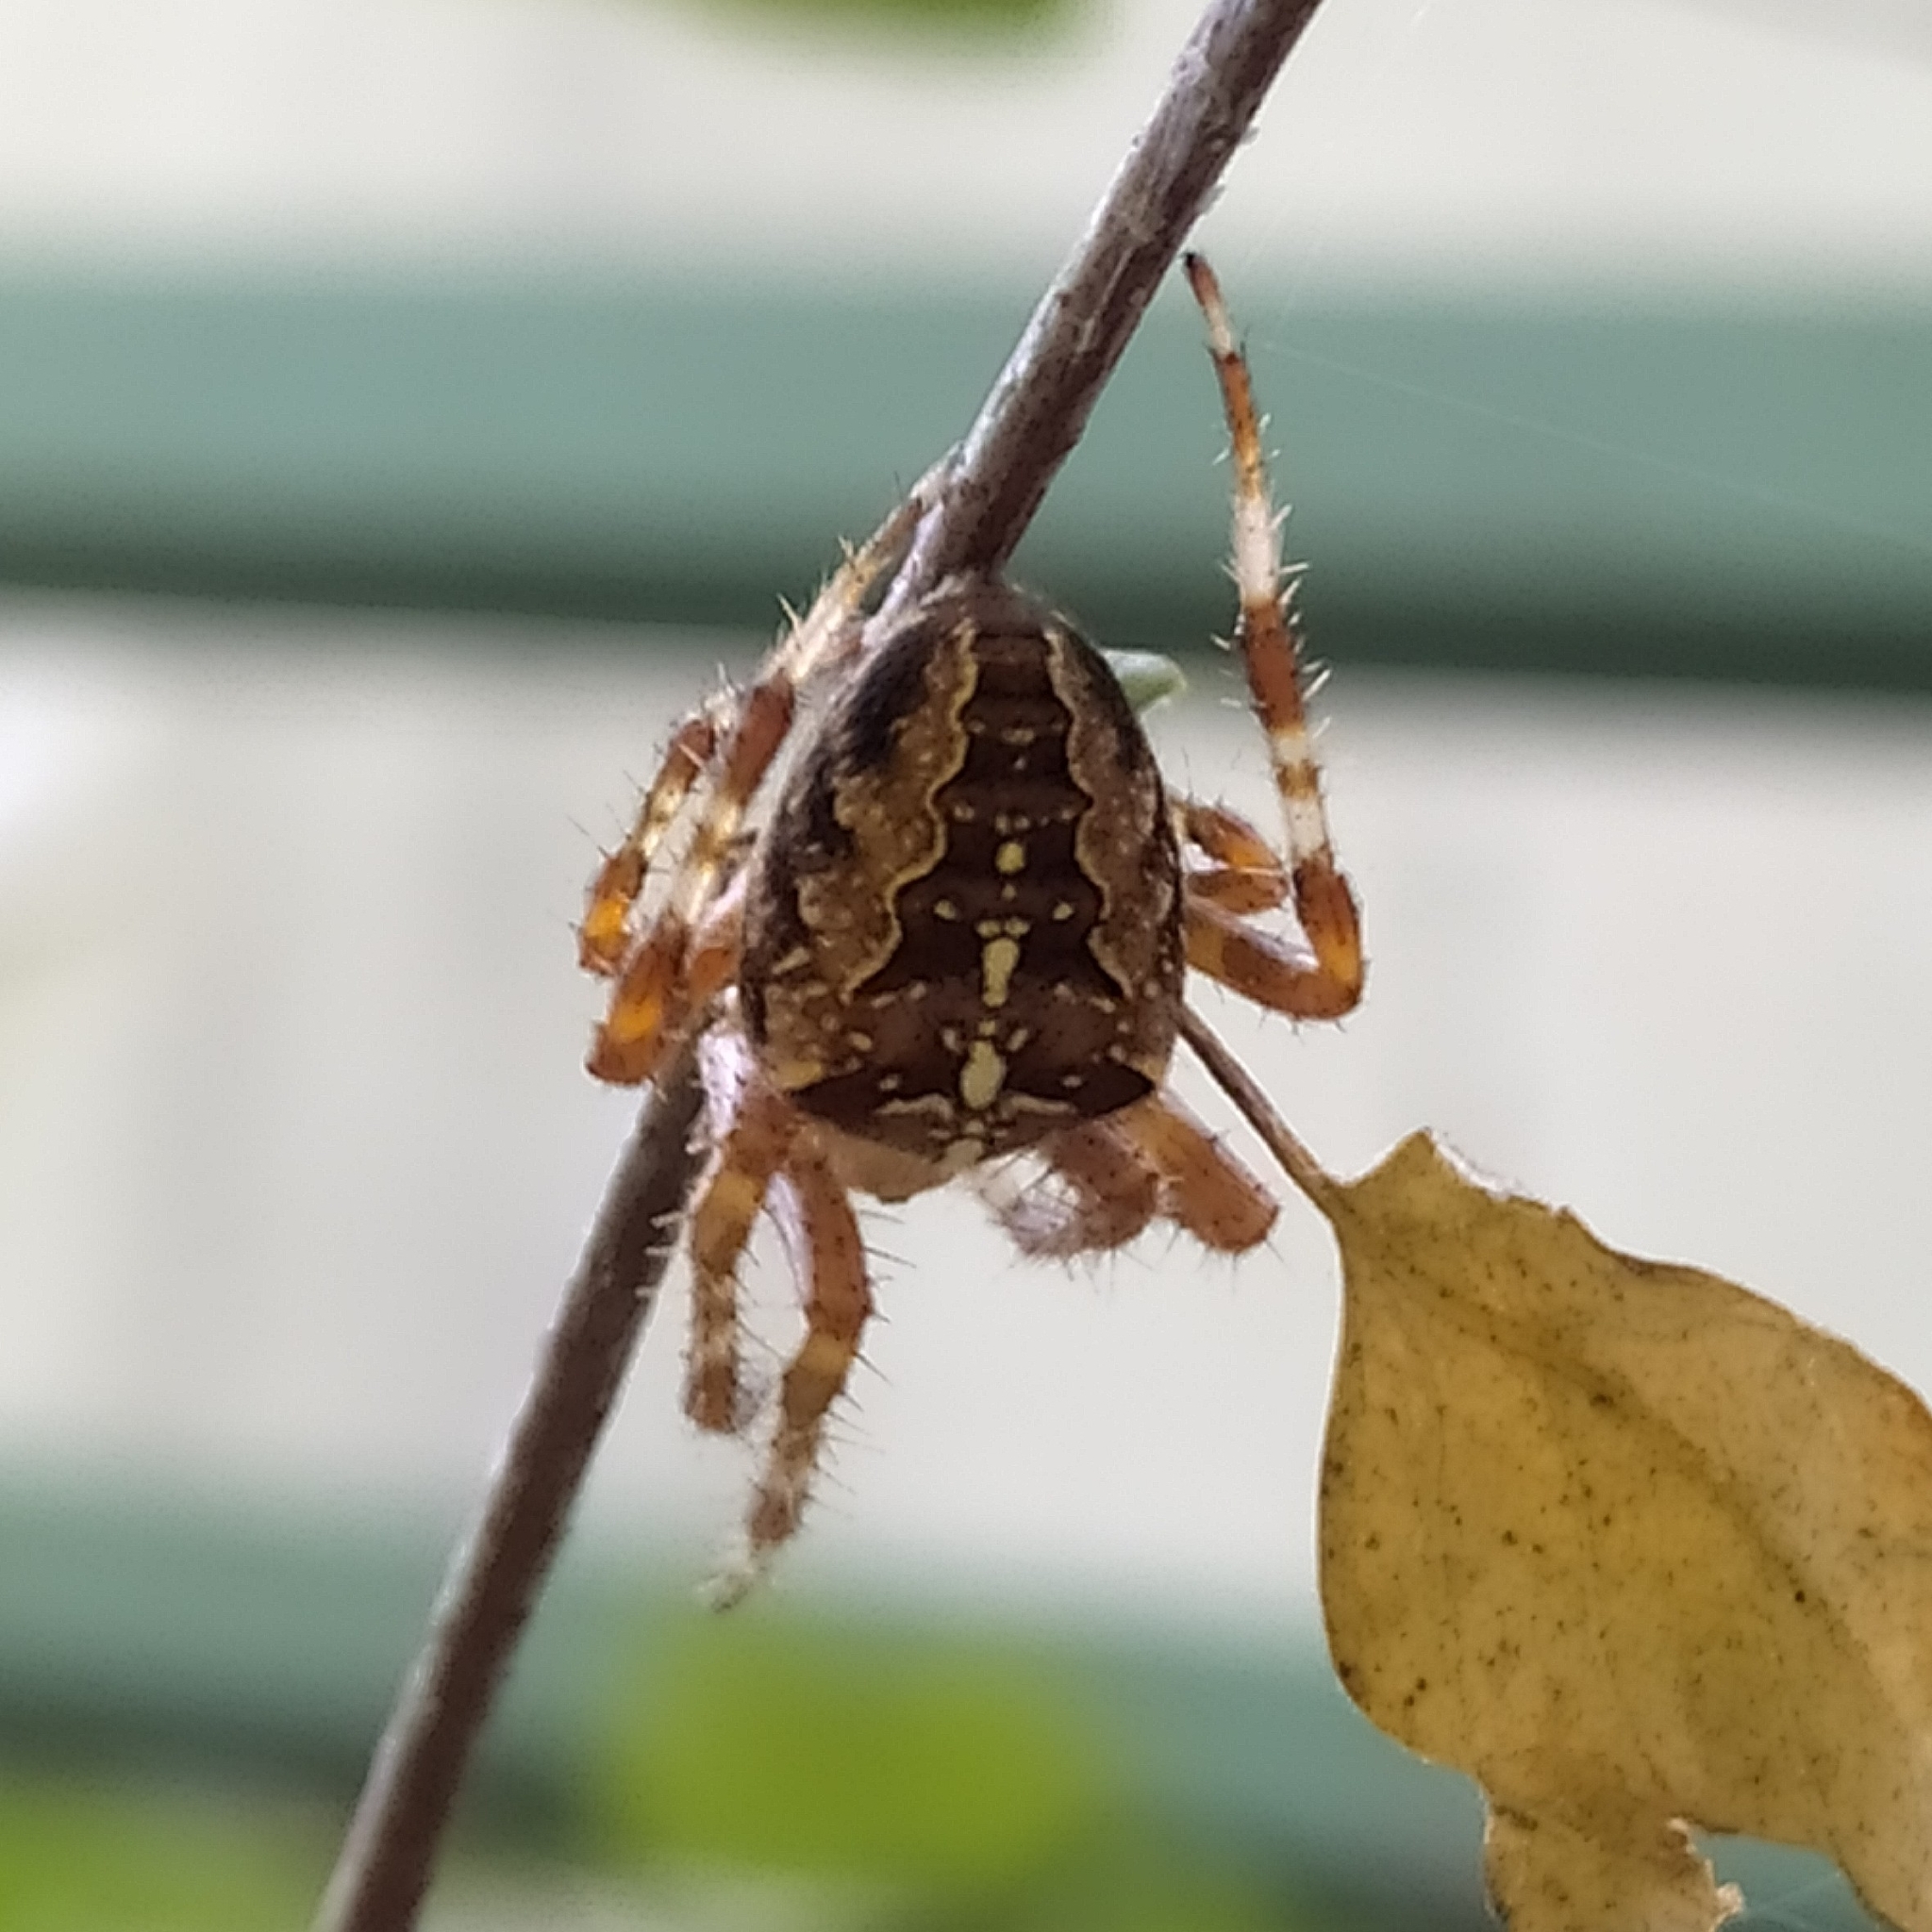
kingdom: Animalia
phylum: Arthropoda
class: Arachnida
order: Araneae
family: Araneidae
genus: Araneus
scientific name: Araneus diadematus
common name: Cross orbweaver
